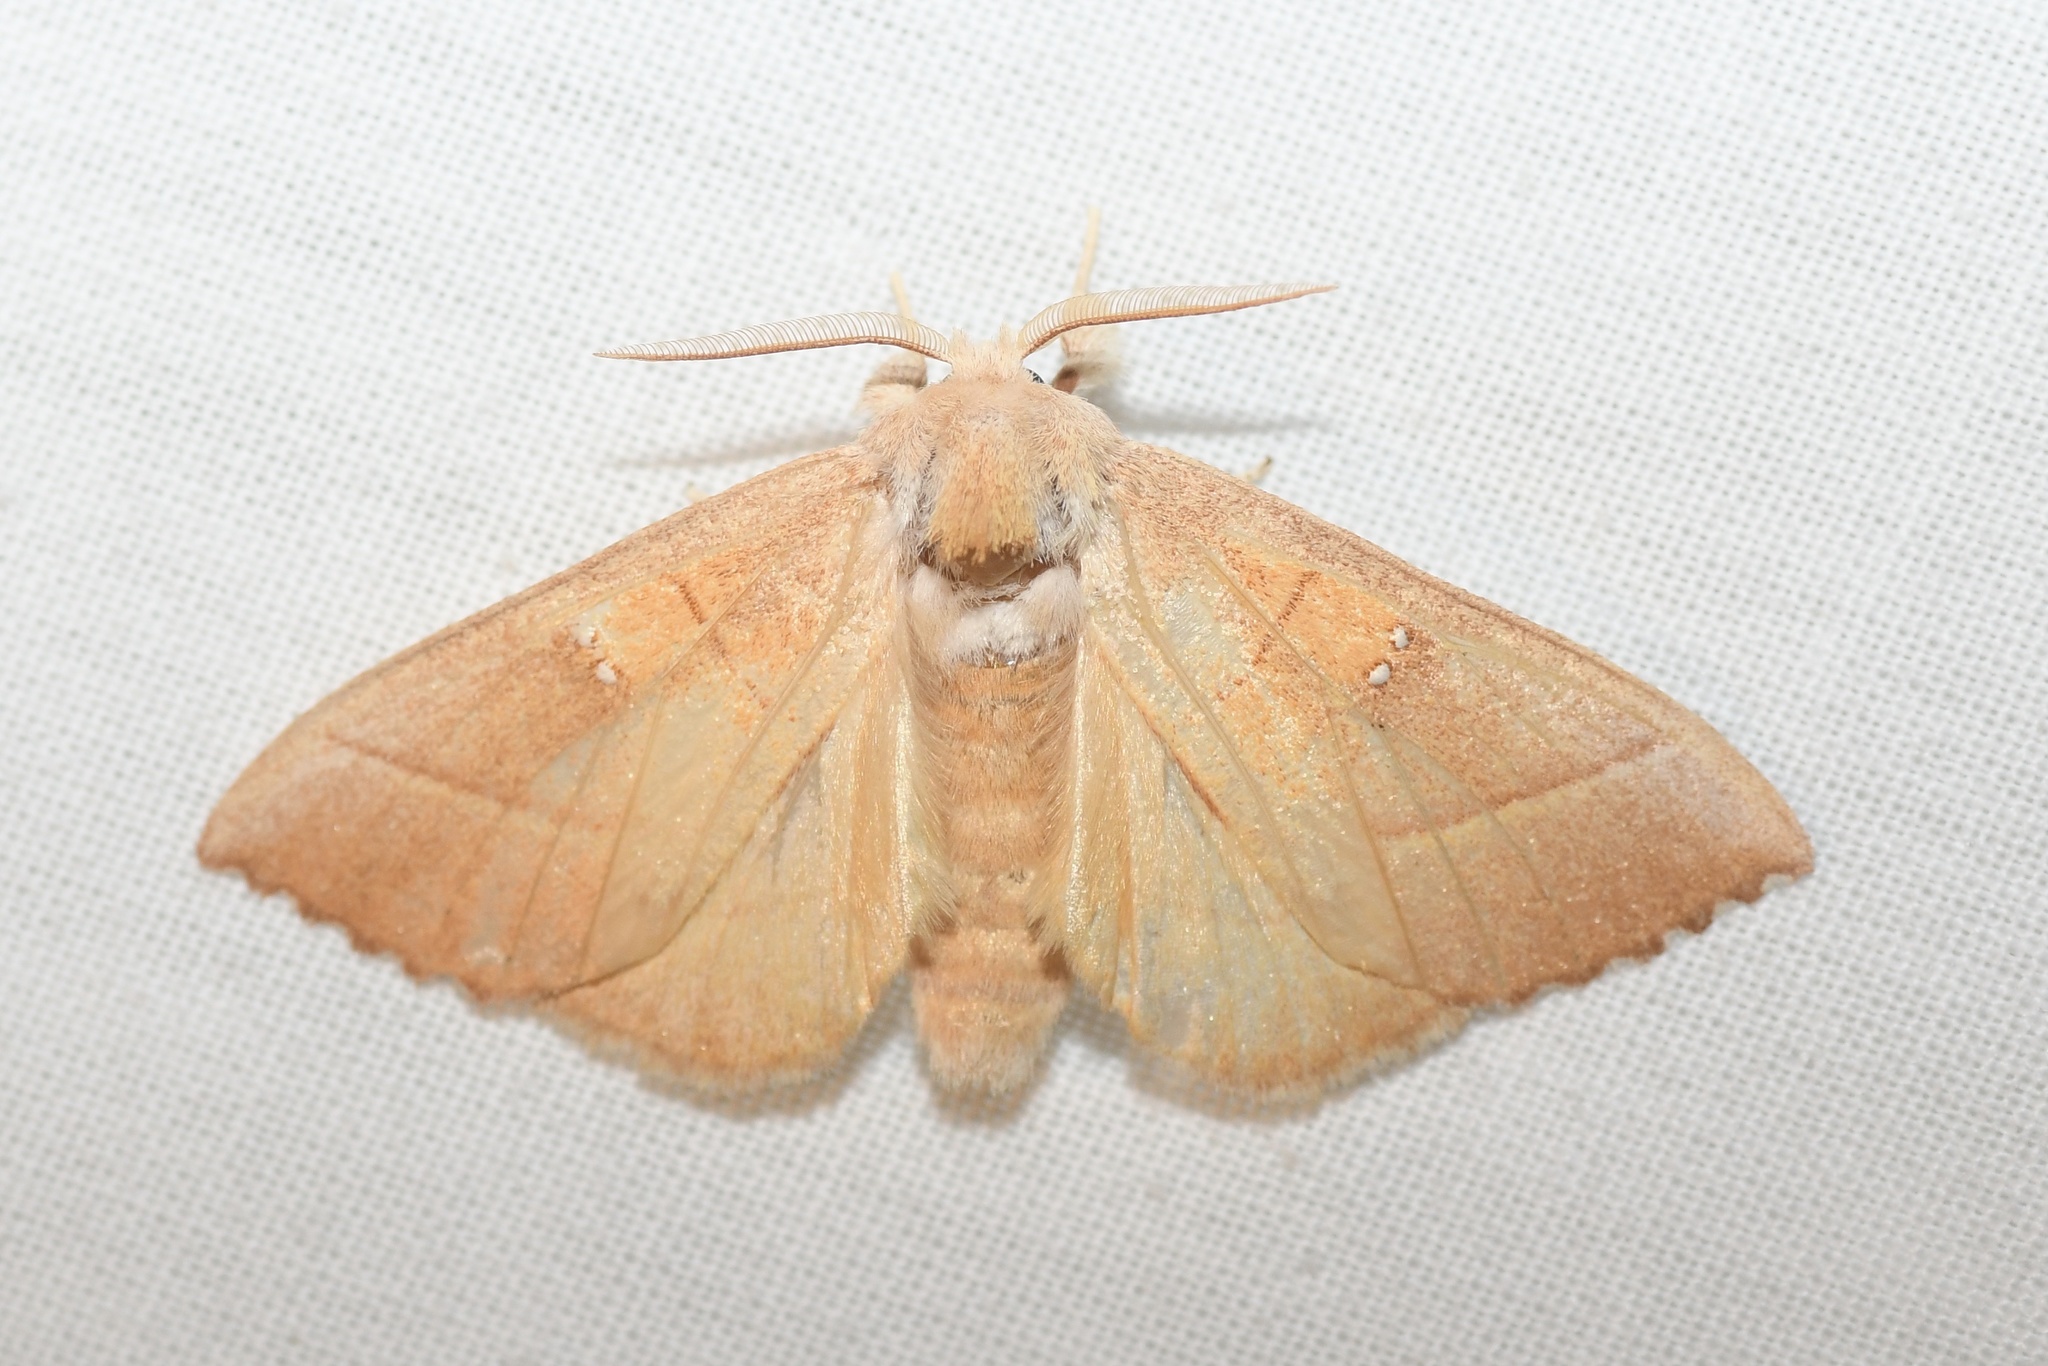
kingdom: Animalia
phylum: Arthropoda
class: Insecta
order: Lepidoptera
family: Notodontidae
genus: Nadata
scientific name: Nadata gibbosa
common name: White-dotted prominent
